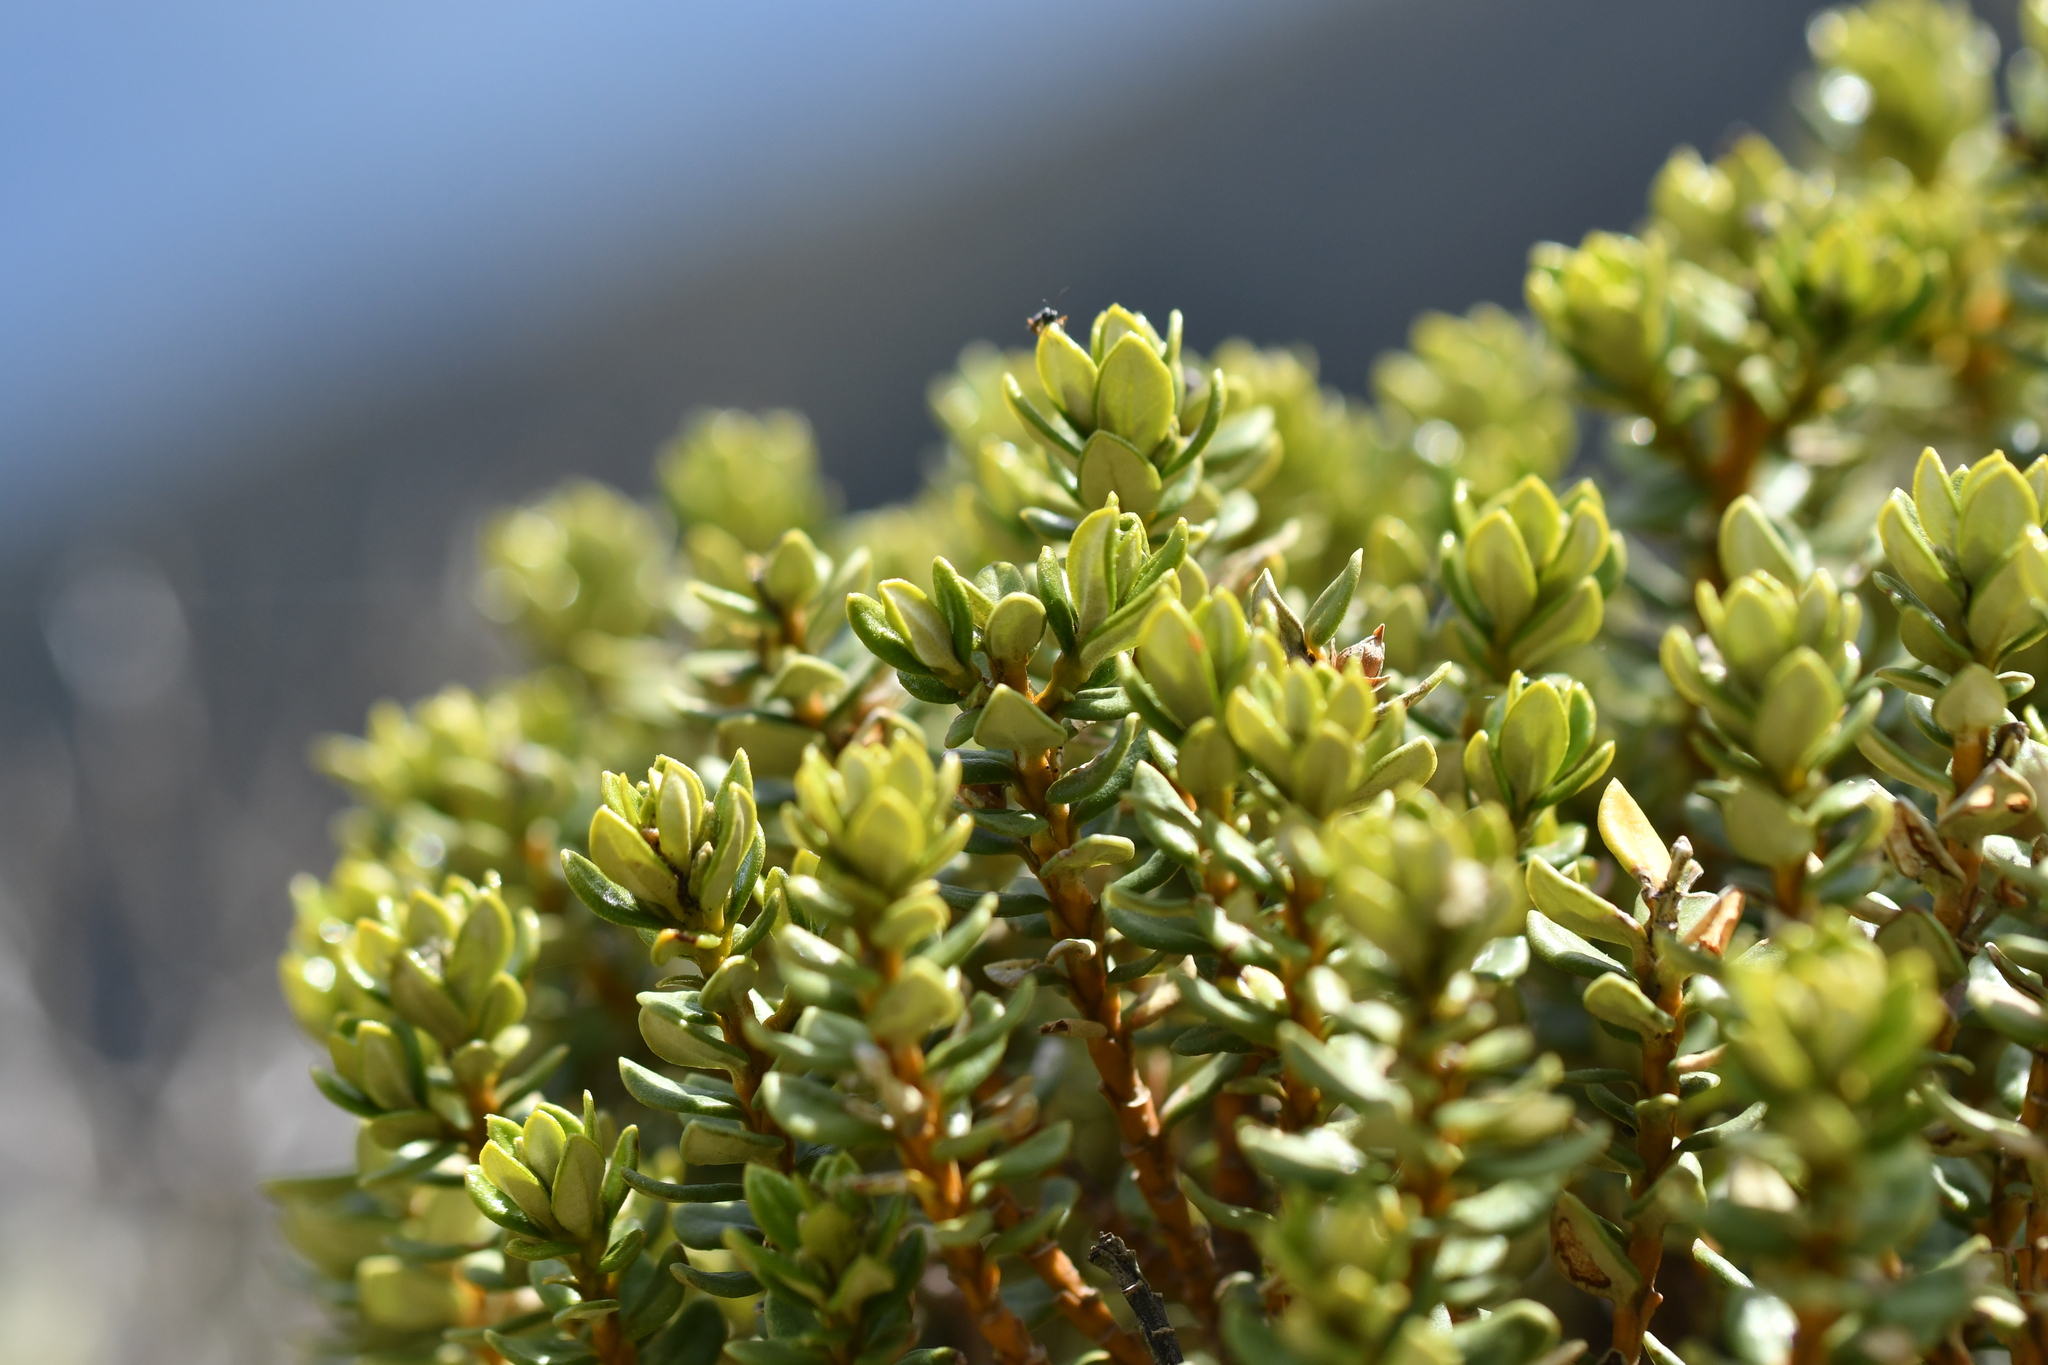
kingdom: Plantae
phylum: Tracheophyta
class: Magnoliopsida
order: Asterales
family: Asteraceae
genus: Olearia
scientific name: Olearia nummularifolia
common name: Sticky daisybush
